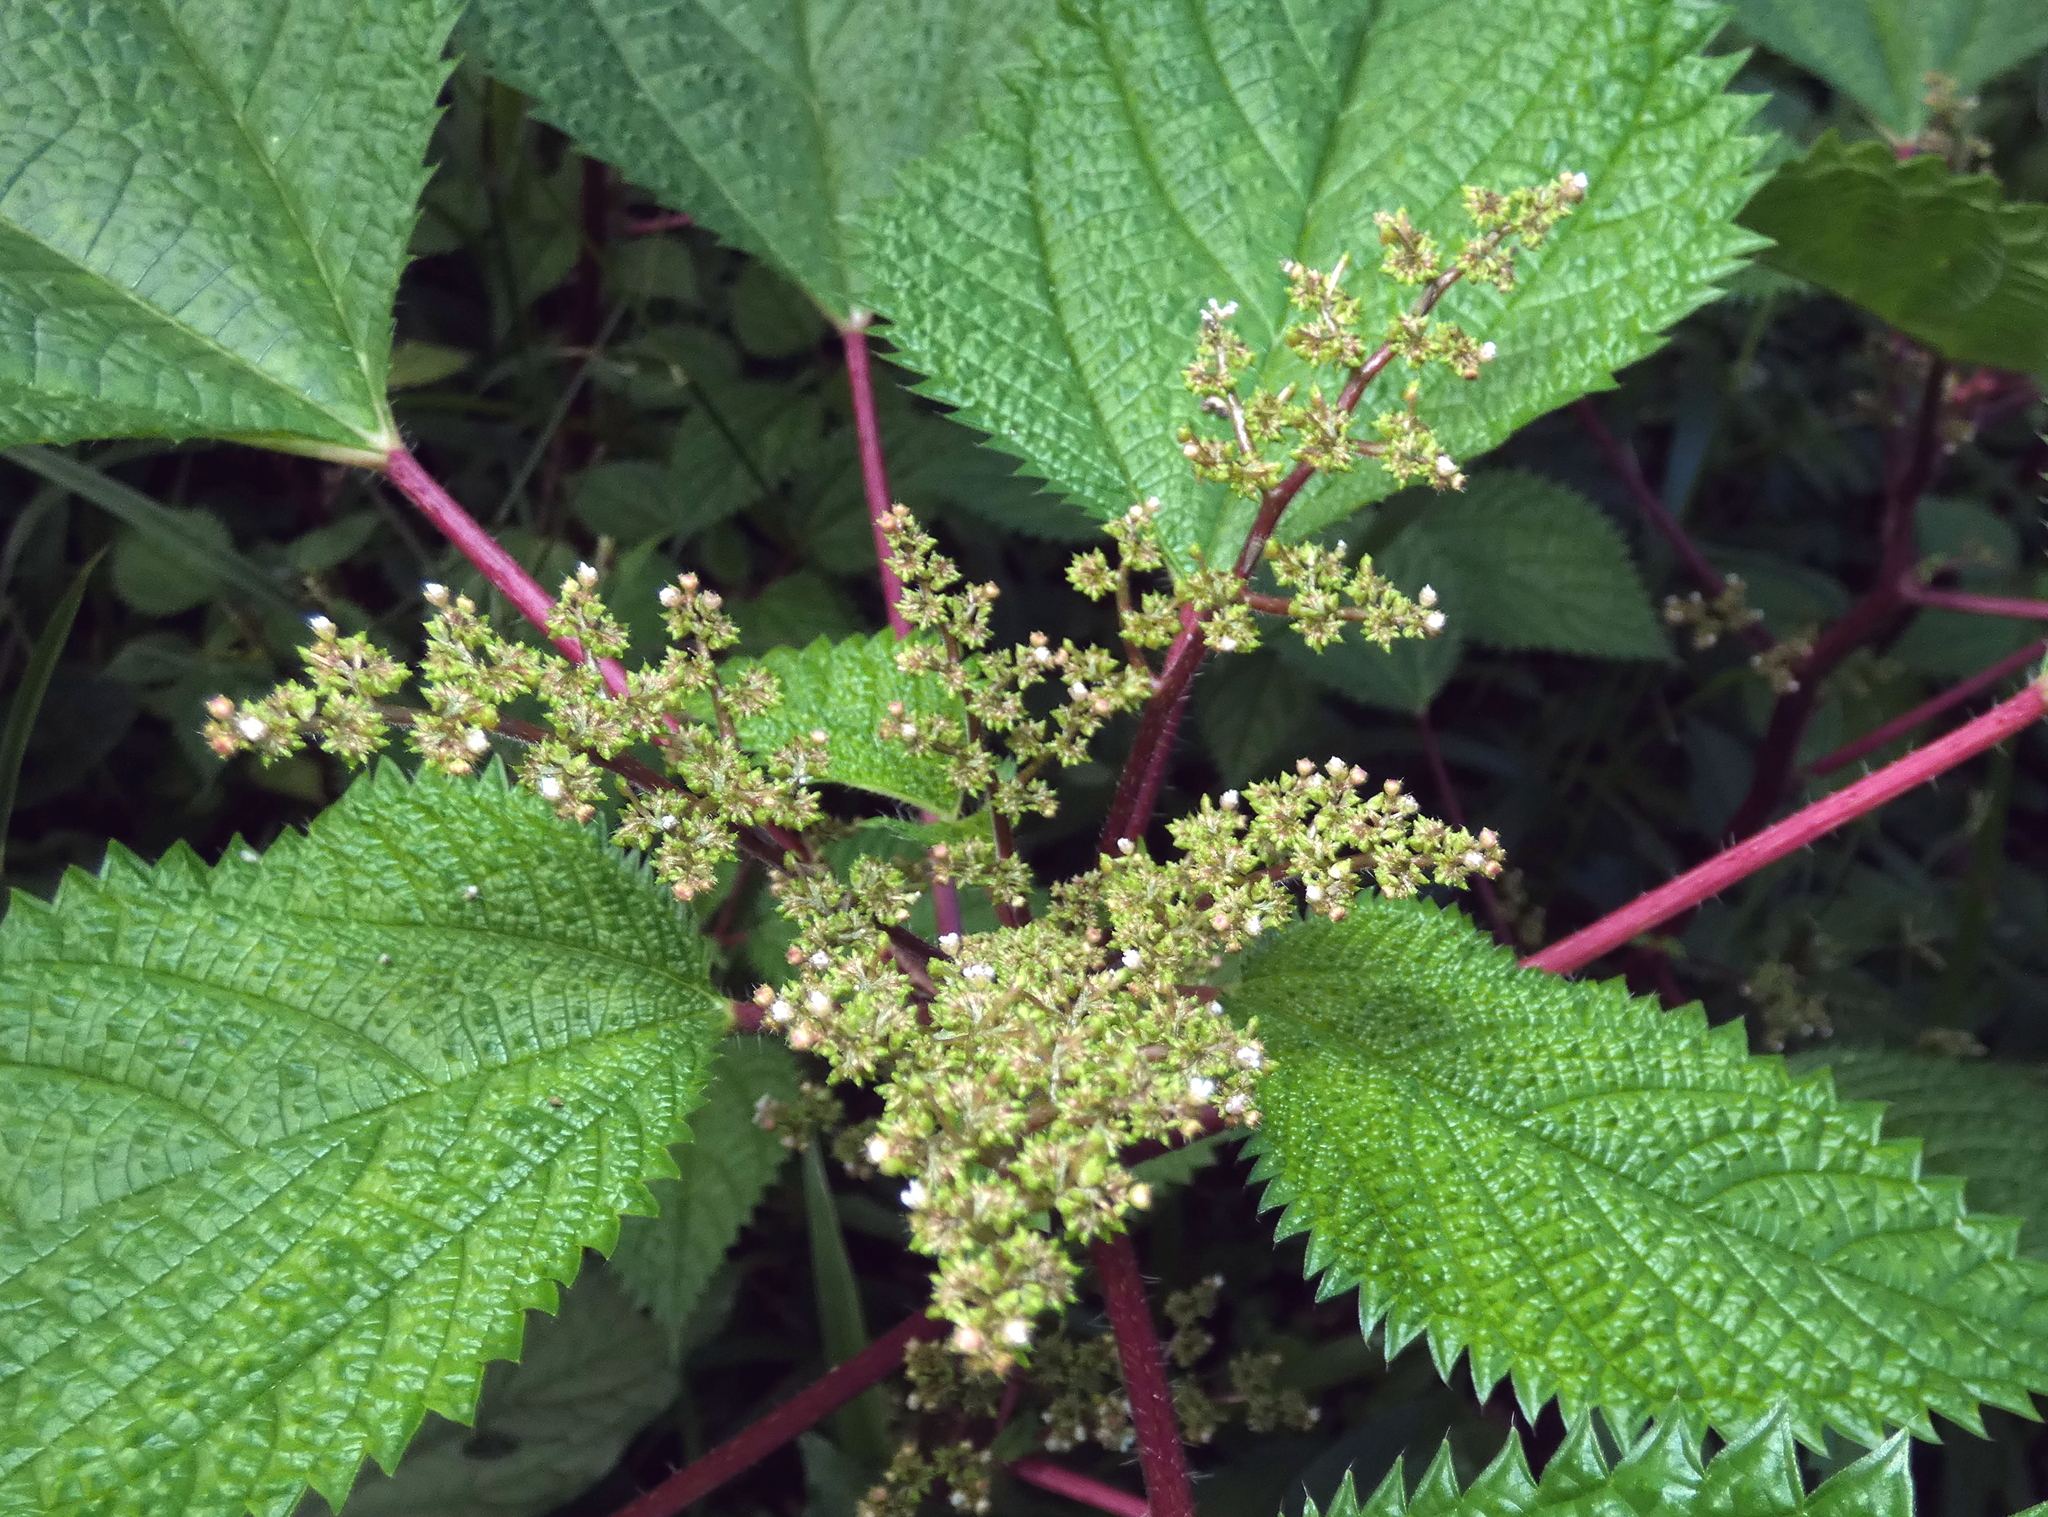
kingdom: Plantae
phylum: Tracheophyta
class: Magnoliopsida
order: Rosales
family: Urticaceae
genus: Laportea
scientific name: Laportea aestuans
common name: West indian woodnettle
